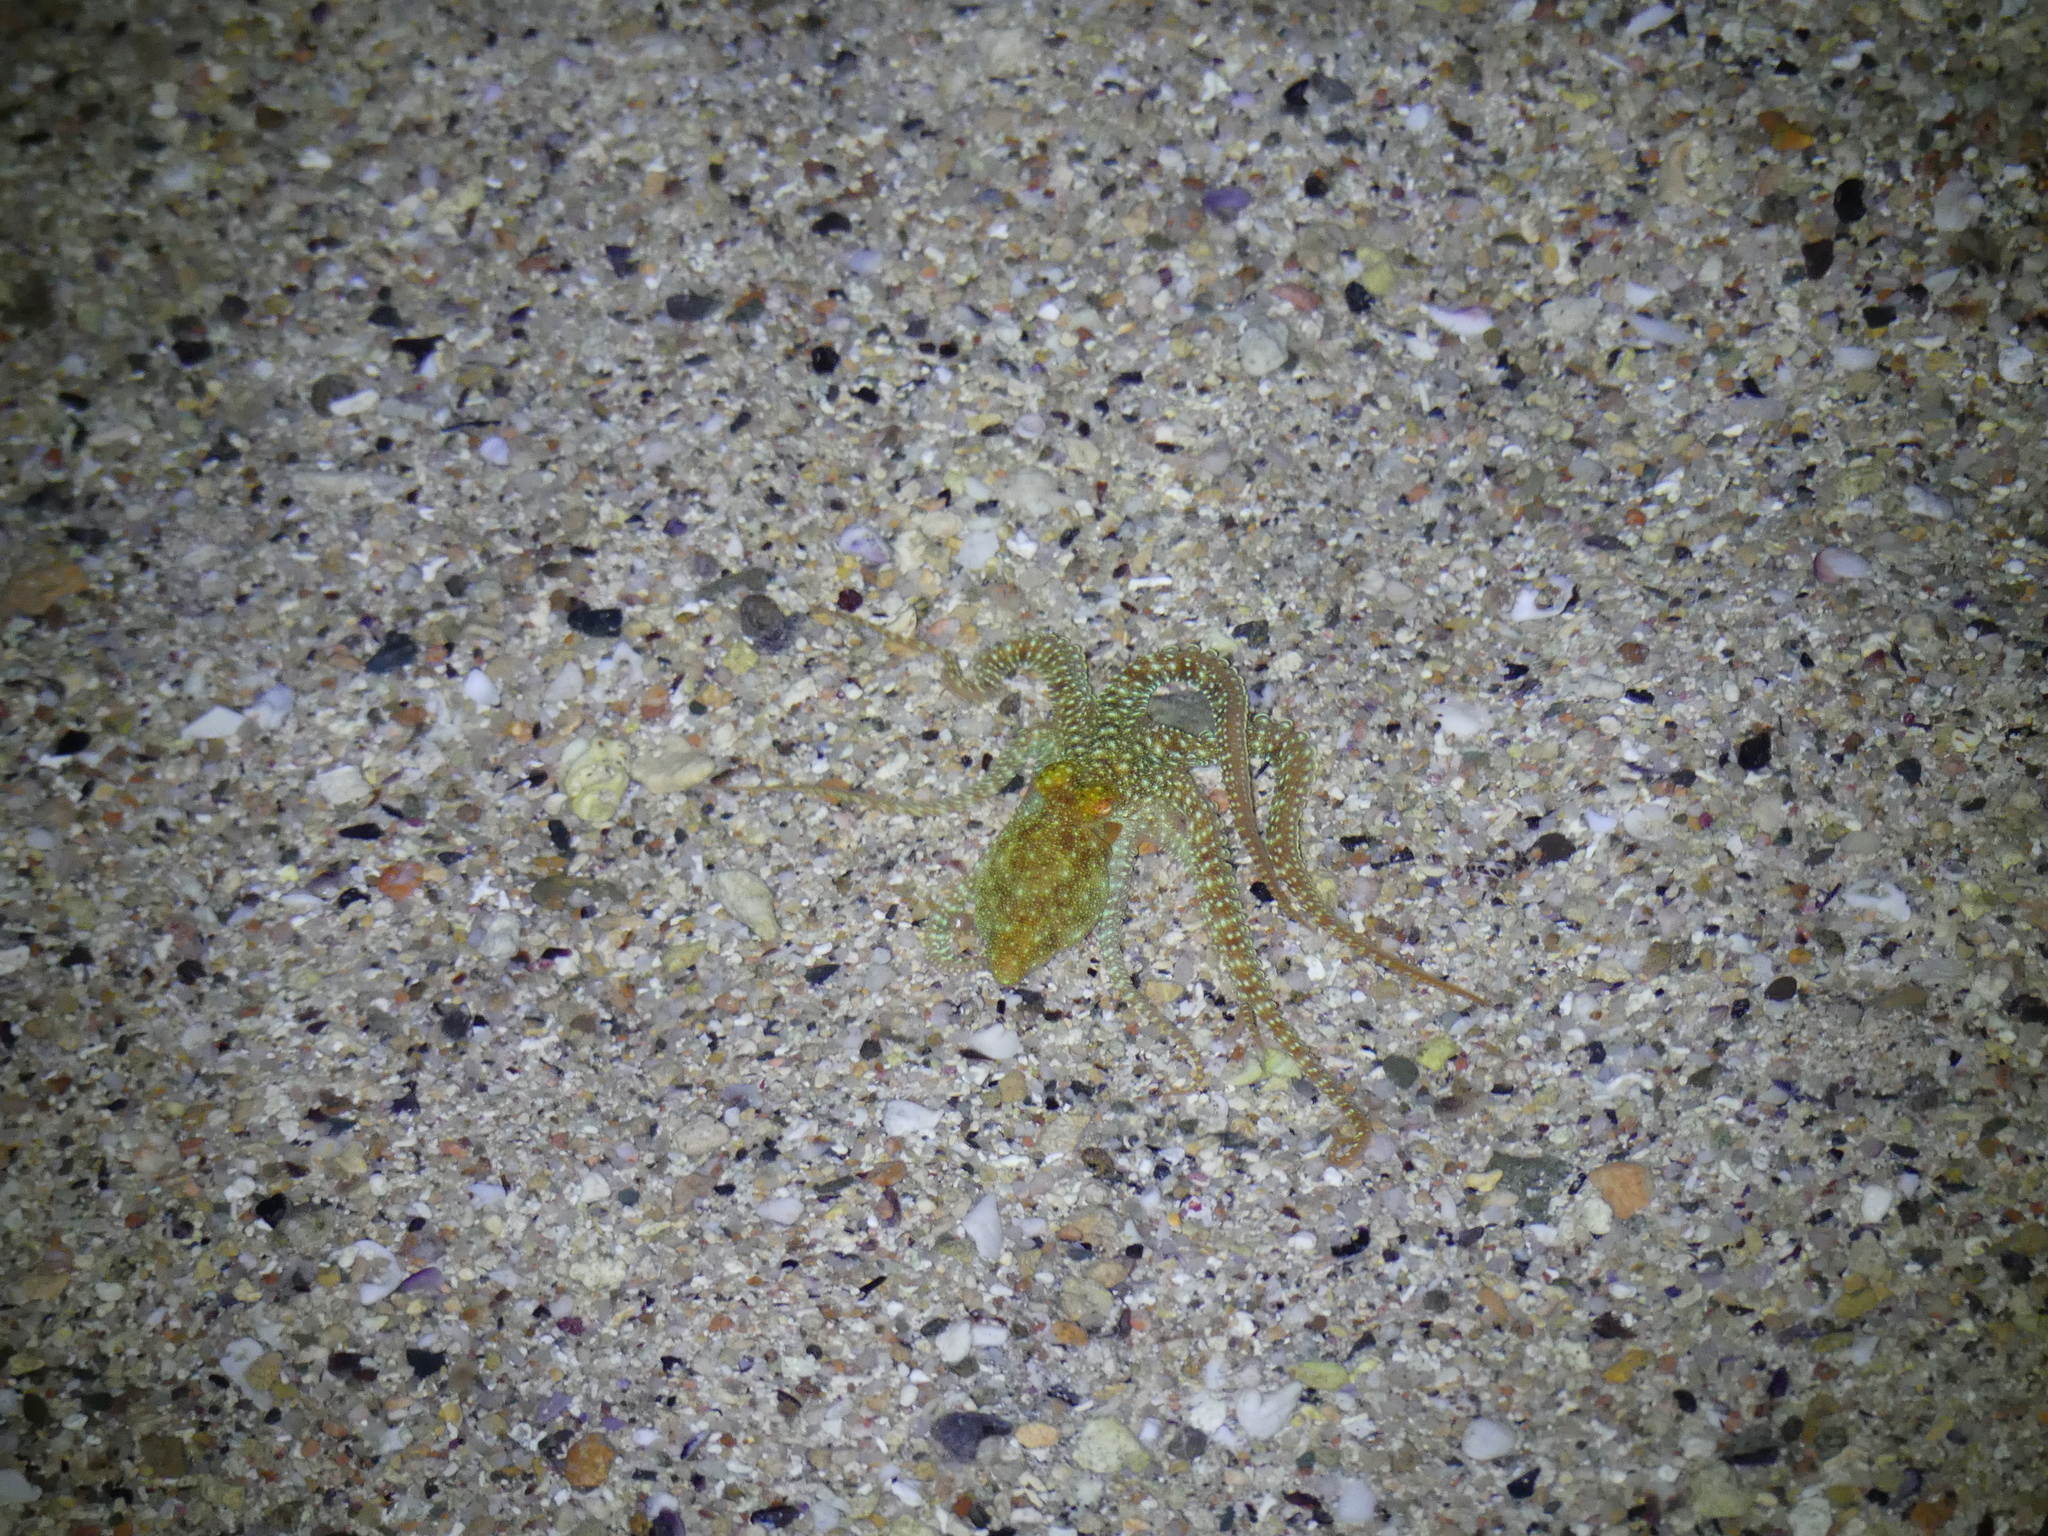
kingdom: Animalia
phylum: Mollusca
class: Cephalopoda
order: Octopoda
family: Octopodidae
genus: Callistoctopus
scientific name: Callistoctopus ornatus
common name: Ornate octopus
